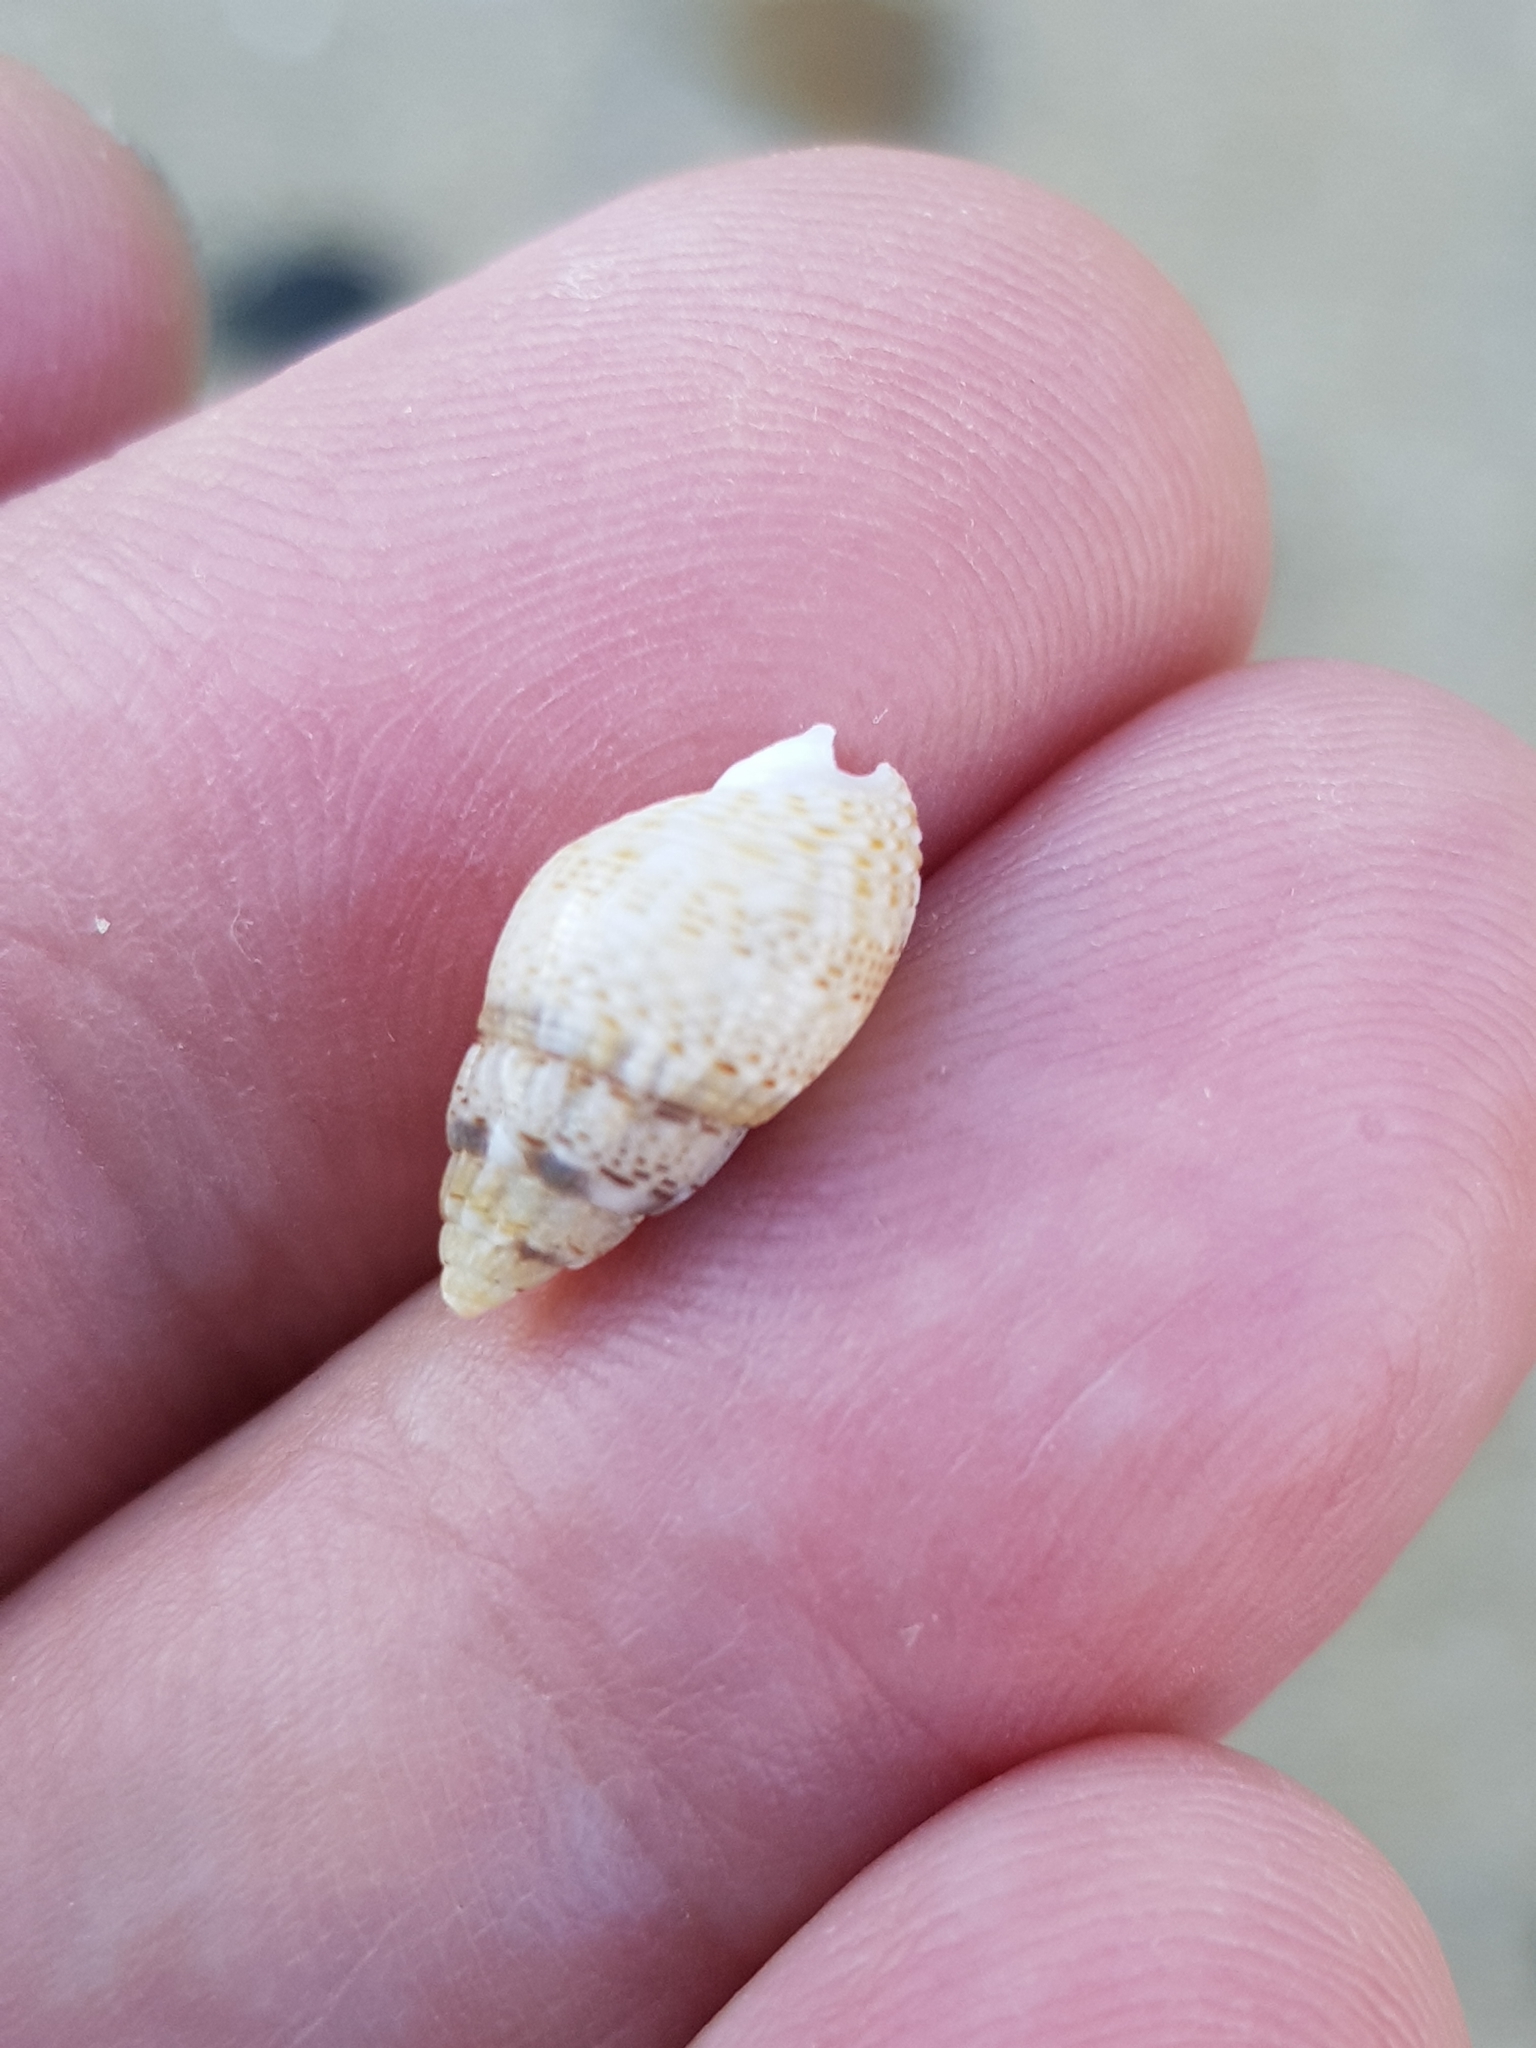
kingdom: Animalia
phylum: Mollusca
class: Gastropoda
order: Neogastropoda
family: Nassariidae
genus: Tritia
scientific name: Tritia unifasciata
